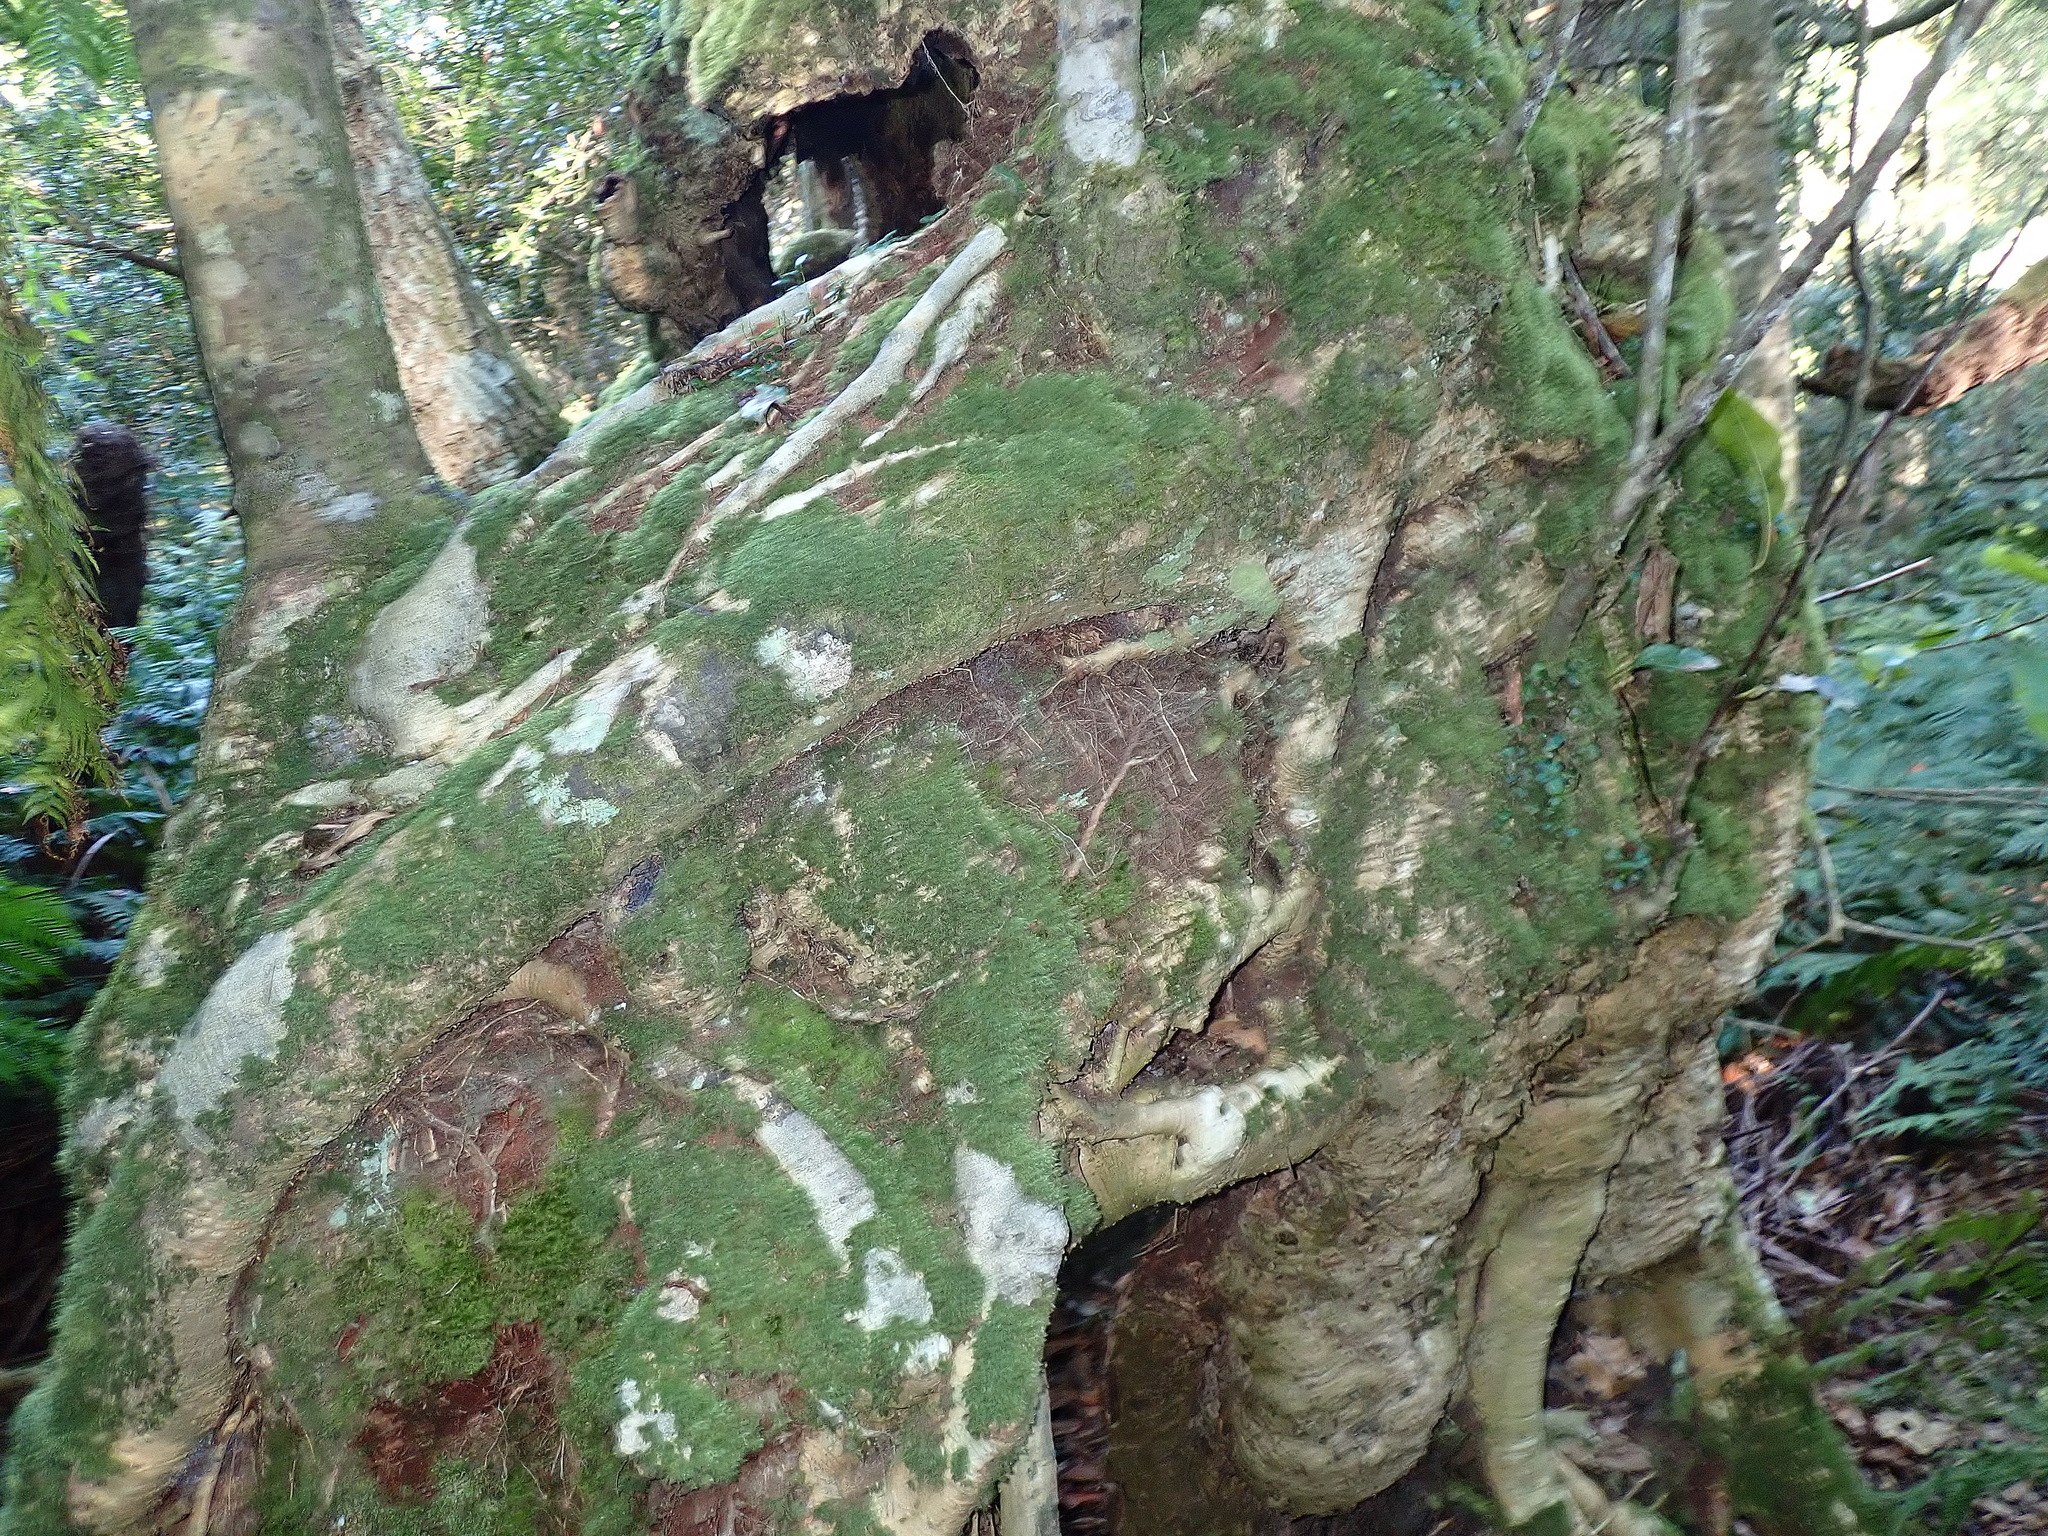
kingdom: Plantae
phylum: Tracheophyta
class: Magnoliopsida
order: Laurales
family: Lauraceae
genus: Ocotea
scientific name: Ocotea bullata
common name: Black stinkwood
